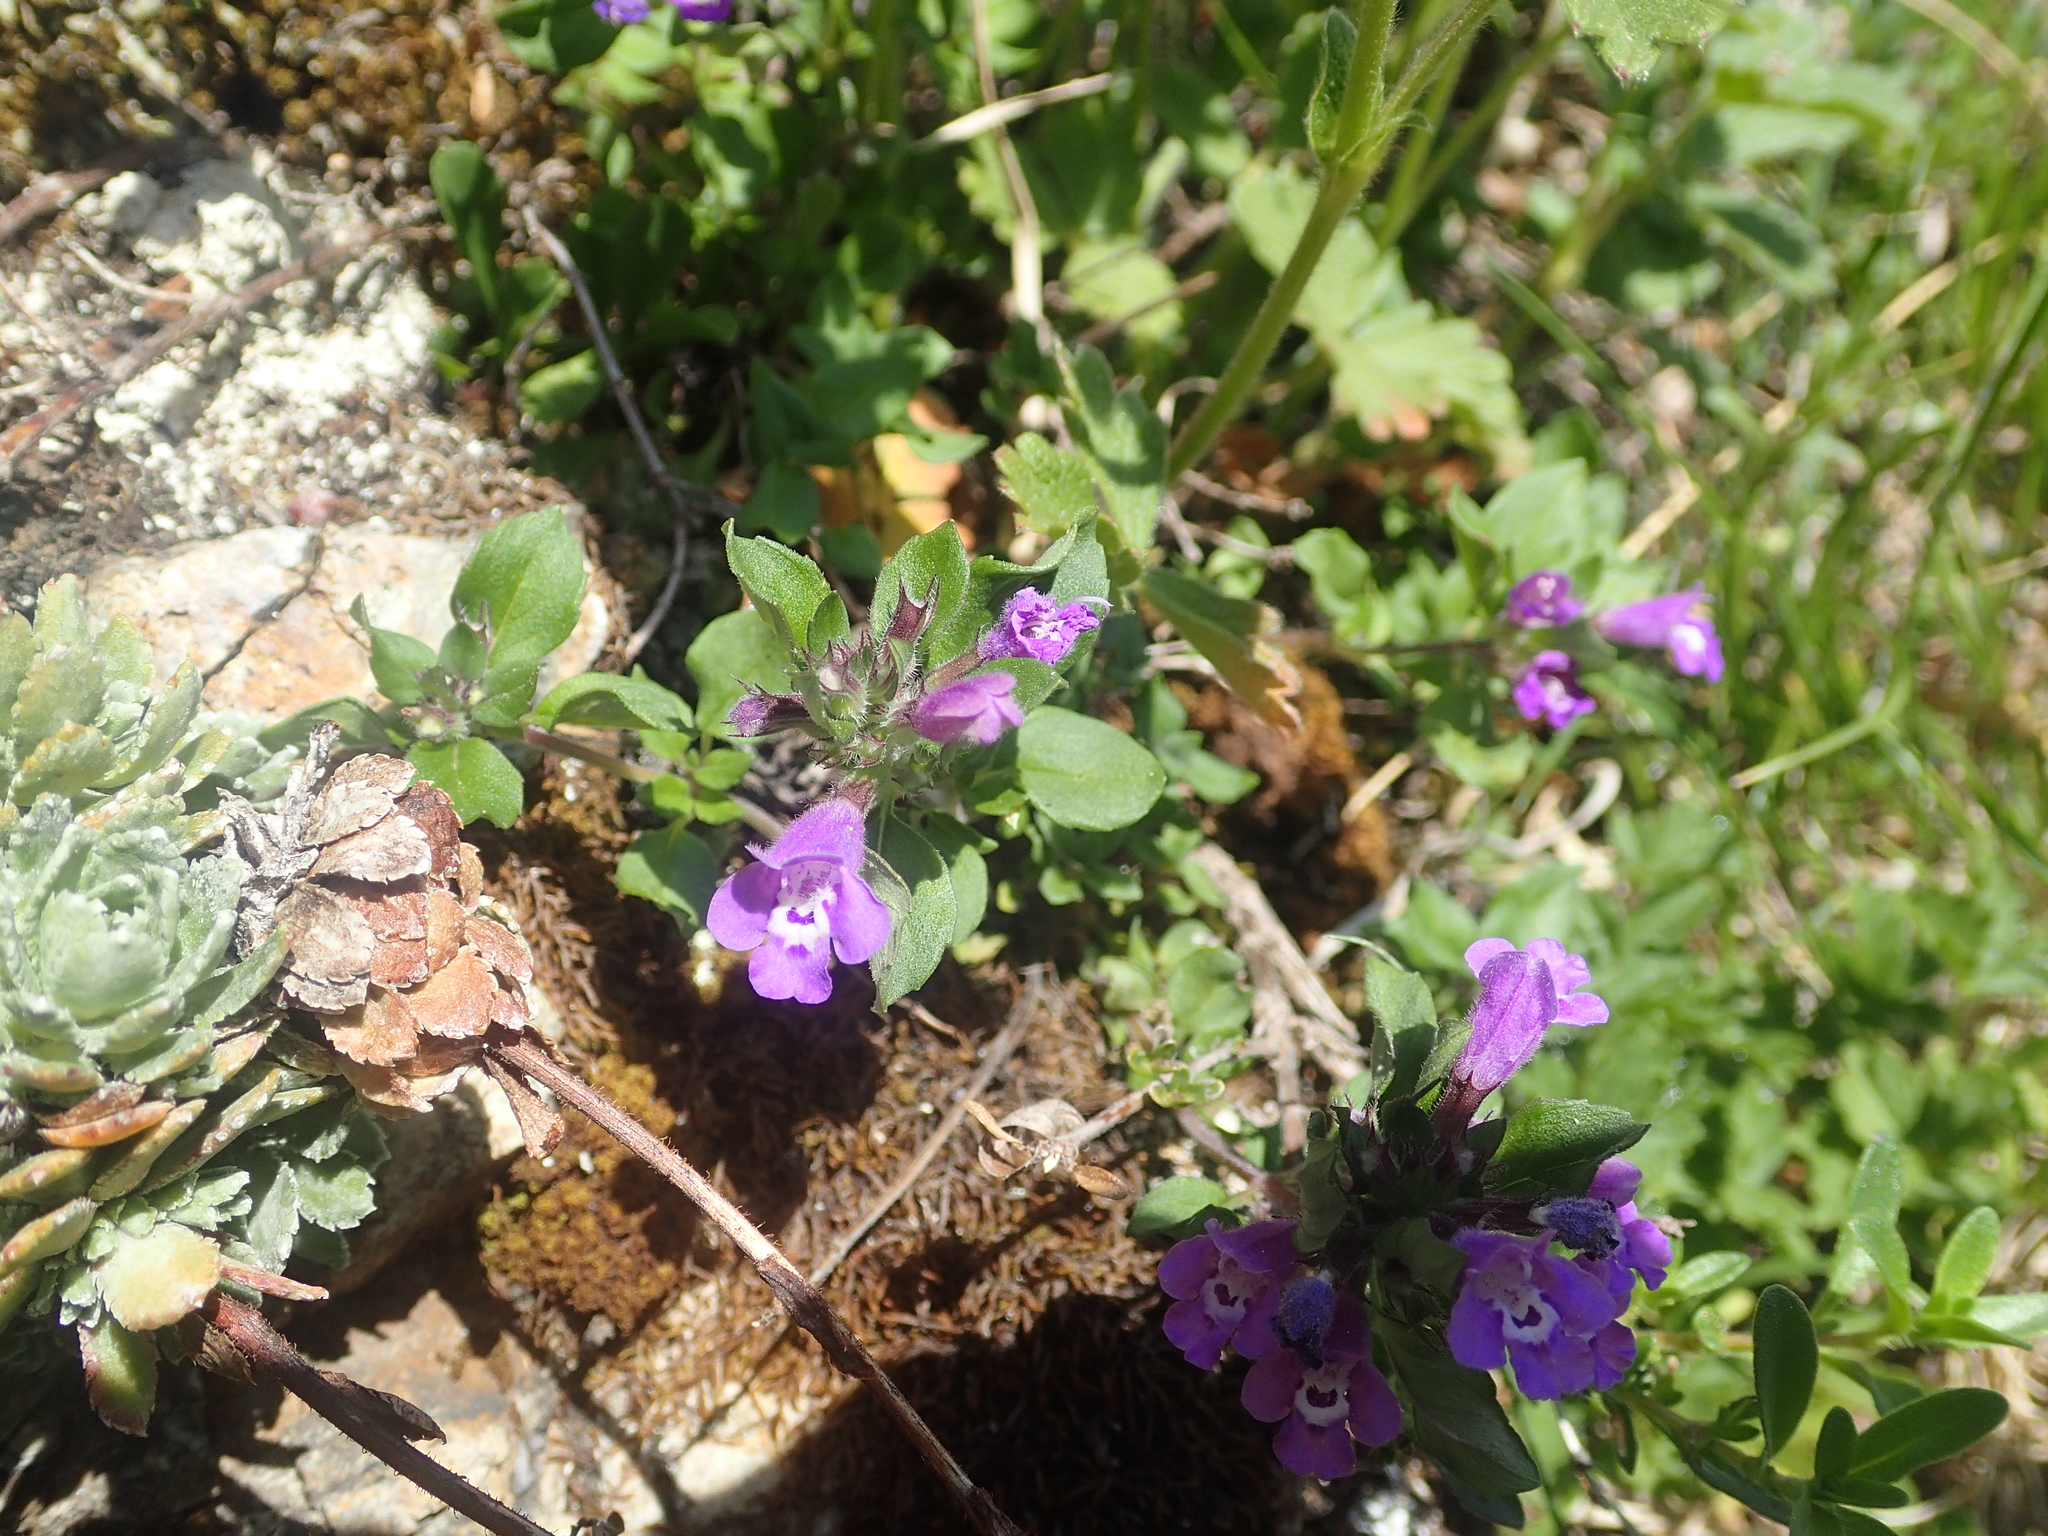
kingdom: Plantae
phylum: Tracheophyta
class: Magnoliopsida
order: Lamiales
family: Lamiaceae
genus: Clinopodium
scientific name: Clinopodium alpinum
